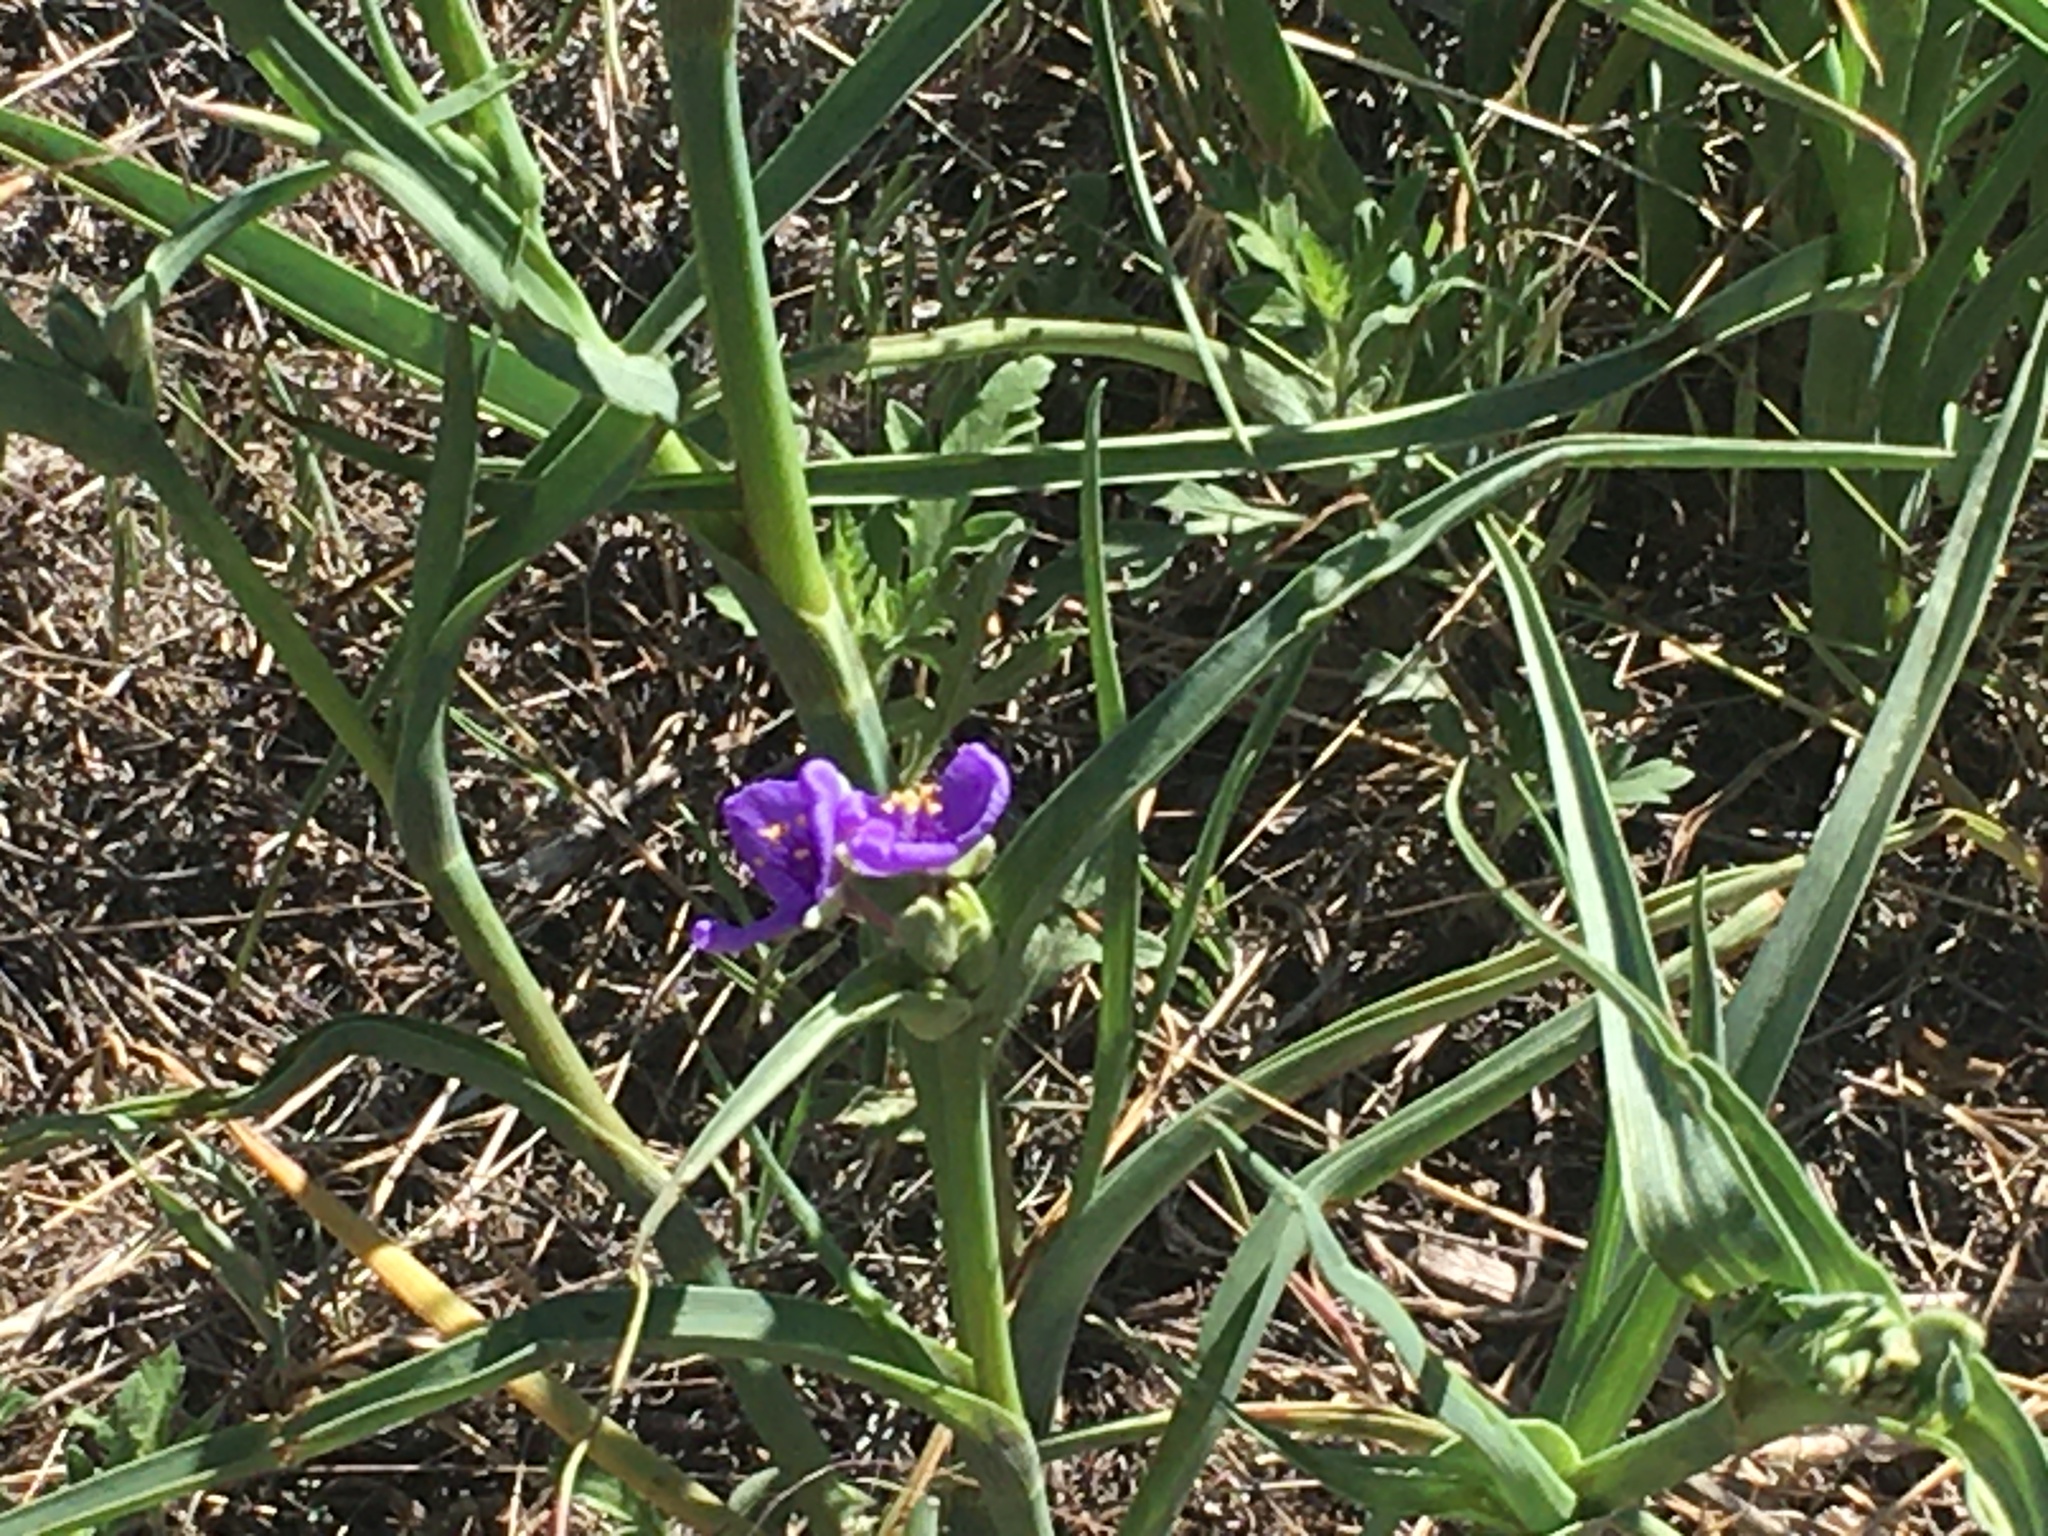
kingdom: Plantae
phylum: Tracheophyta
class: Liliopsida
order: Commelinales
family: Commelinaceae
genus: Tradescantia
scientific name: Tradescantia occidentalis
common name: Prairie spiderwort
